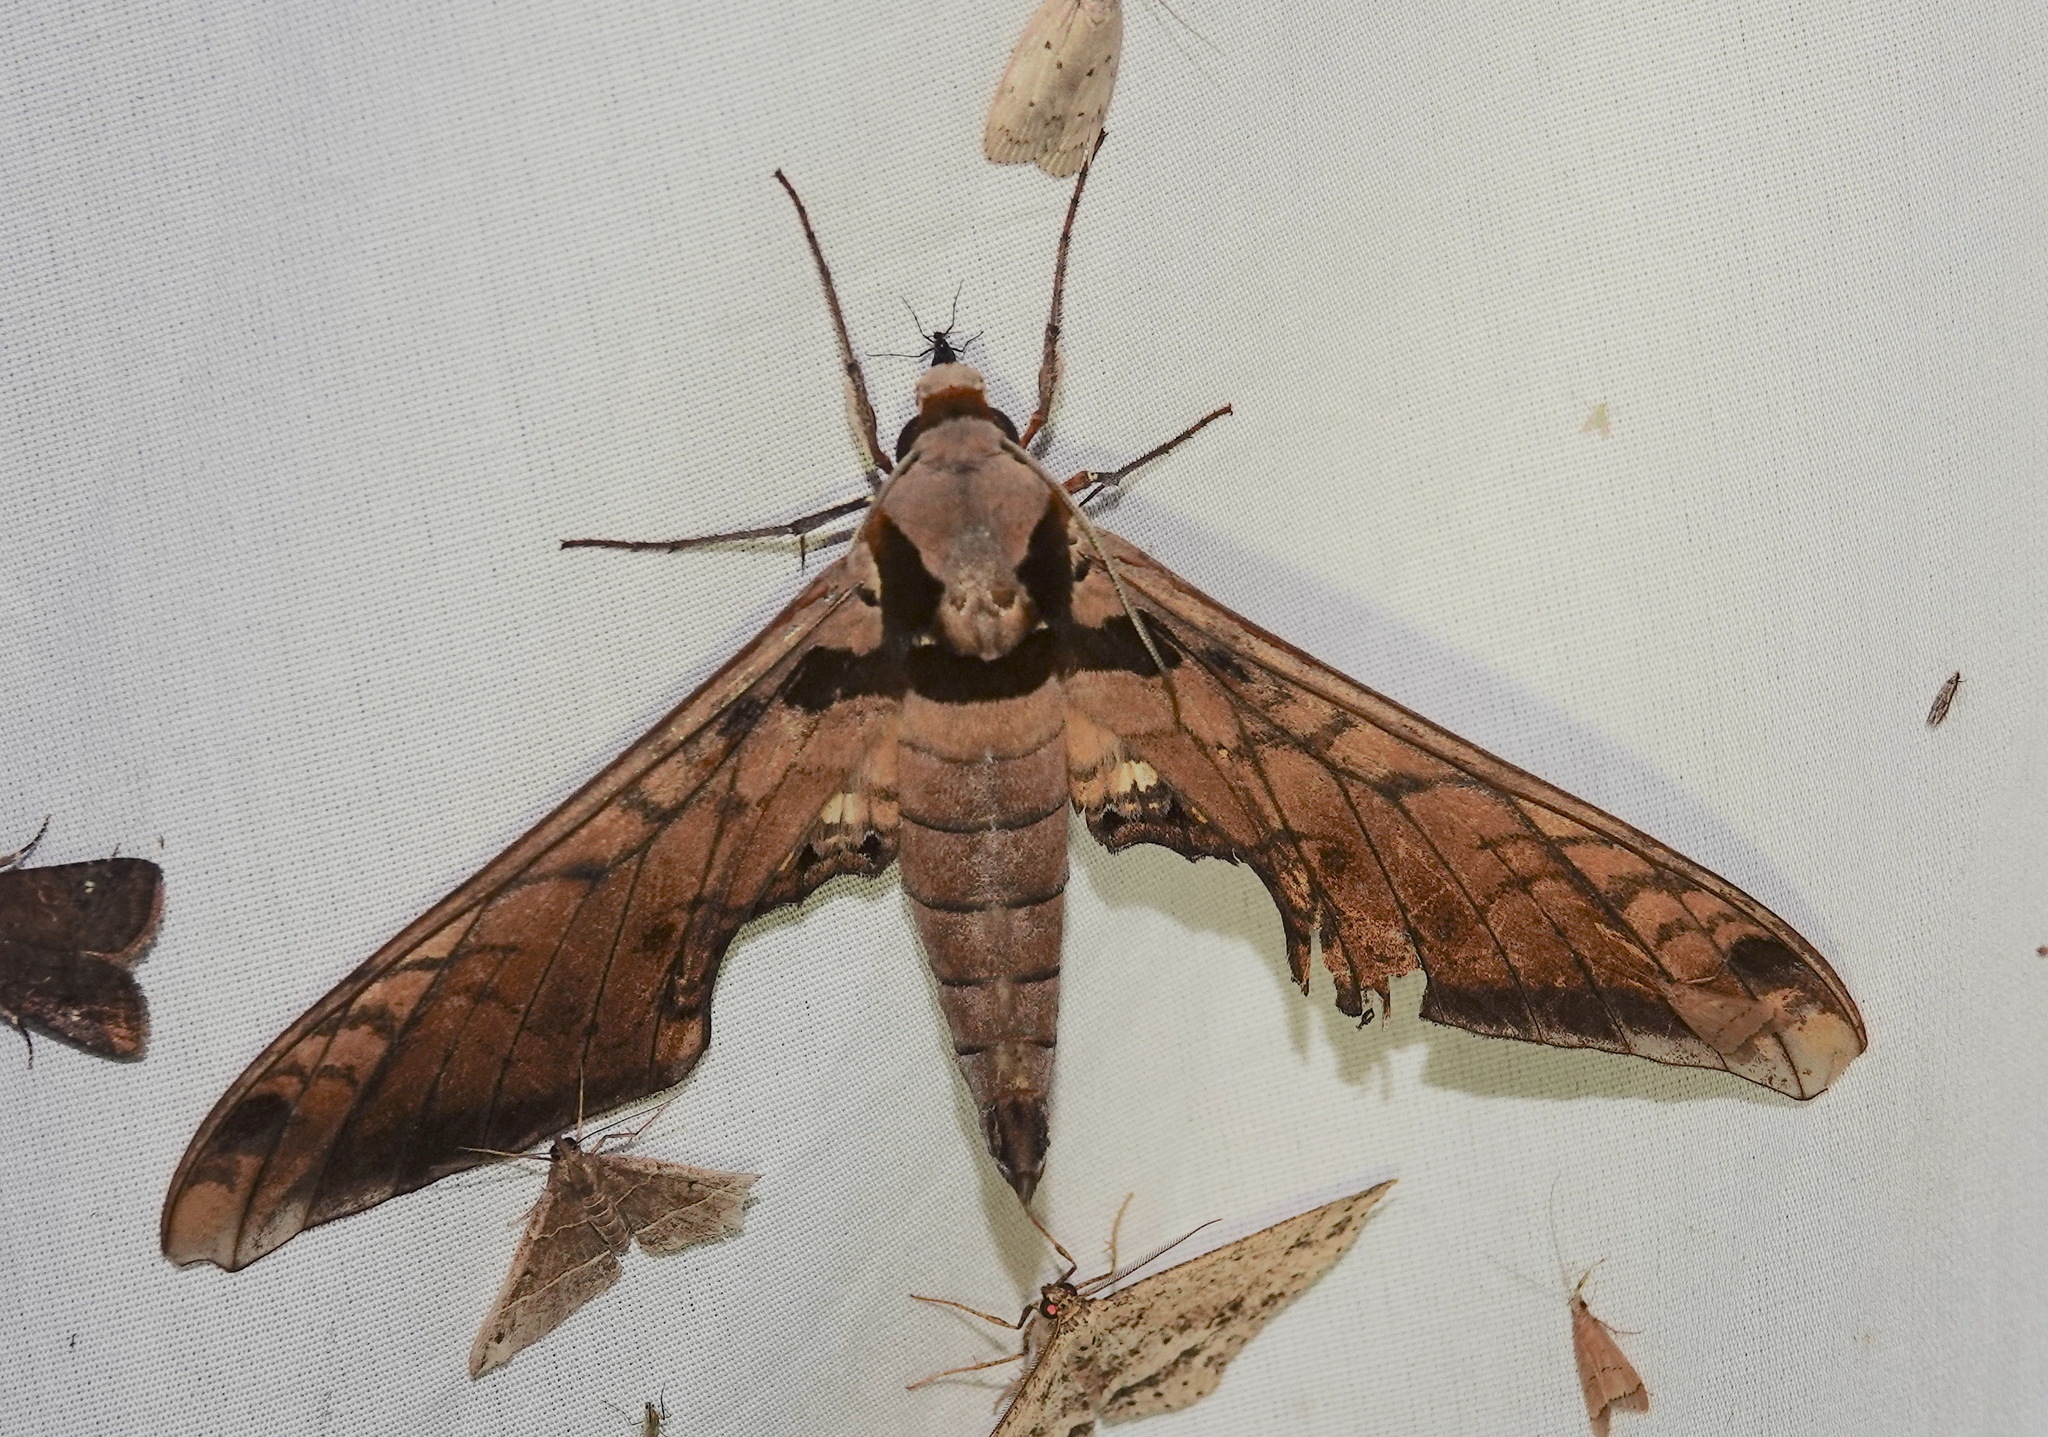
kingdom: Animalia
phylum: Arthropoda
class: Insecta
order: Lepidoptera
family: Sphingidae
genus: Adhemarius
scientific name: Adhemarius tigrina
